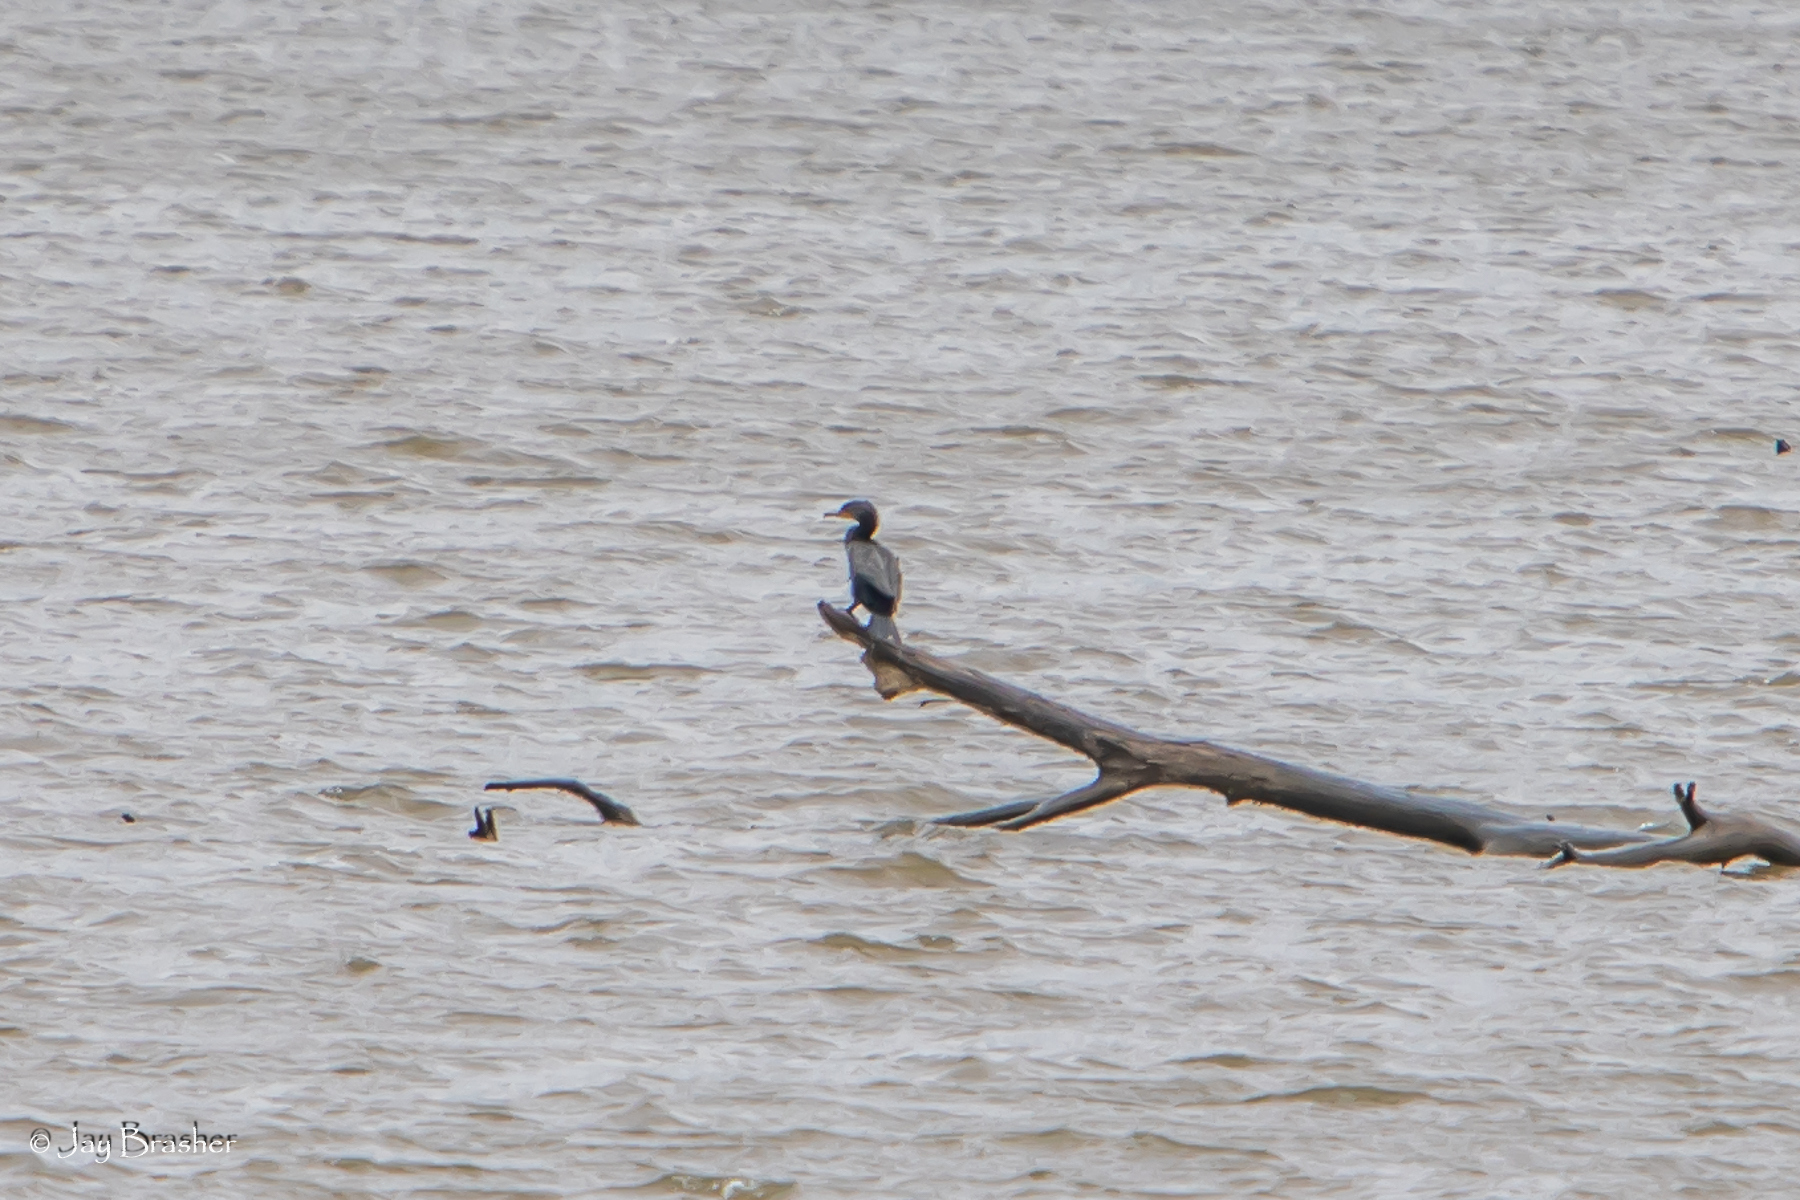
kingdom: Animalia
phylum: Chordata
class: Aves
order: Suliformes
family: Phalacrocoracidae
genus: Phalacrocorax
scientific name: Phalacrocorax auritus
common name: Double-crested cormorant
